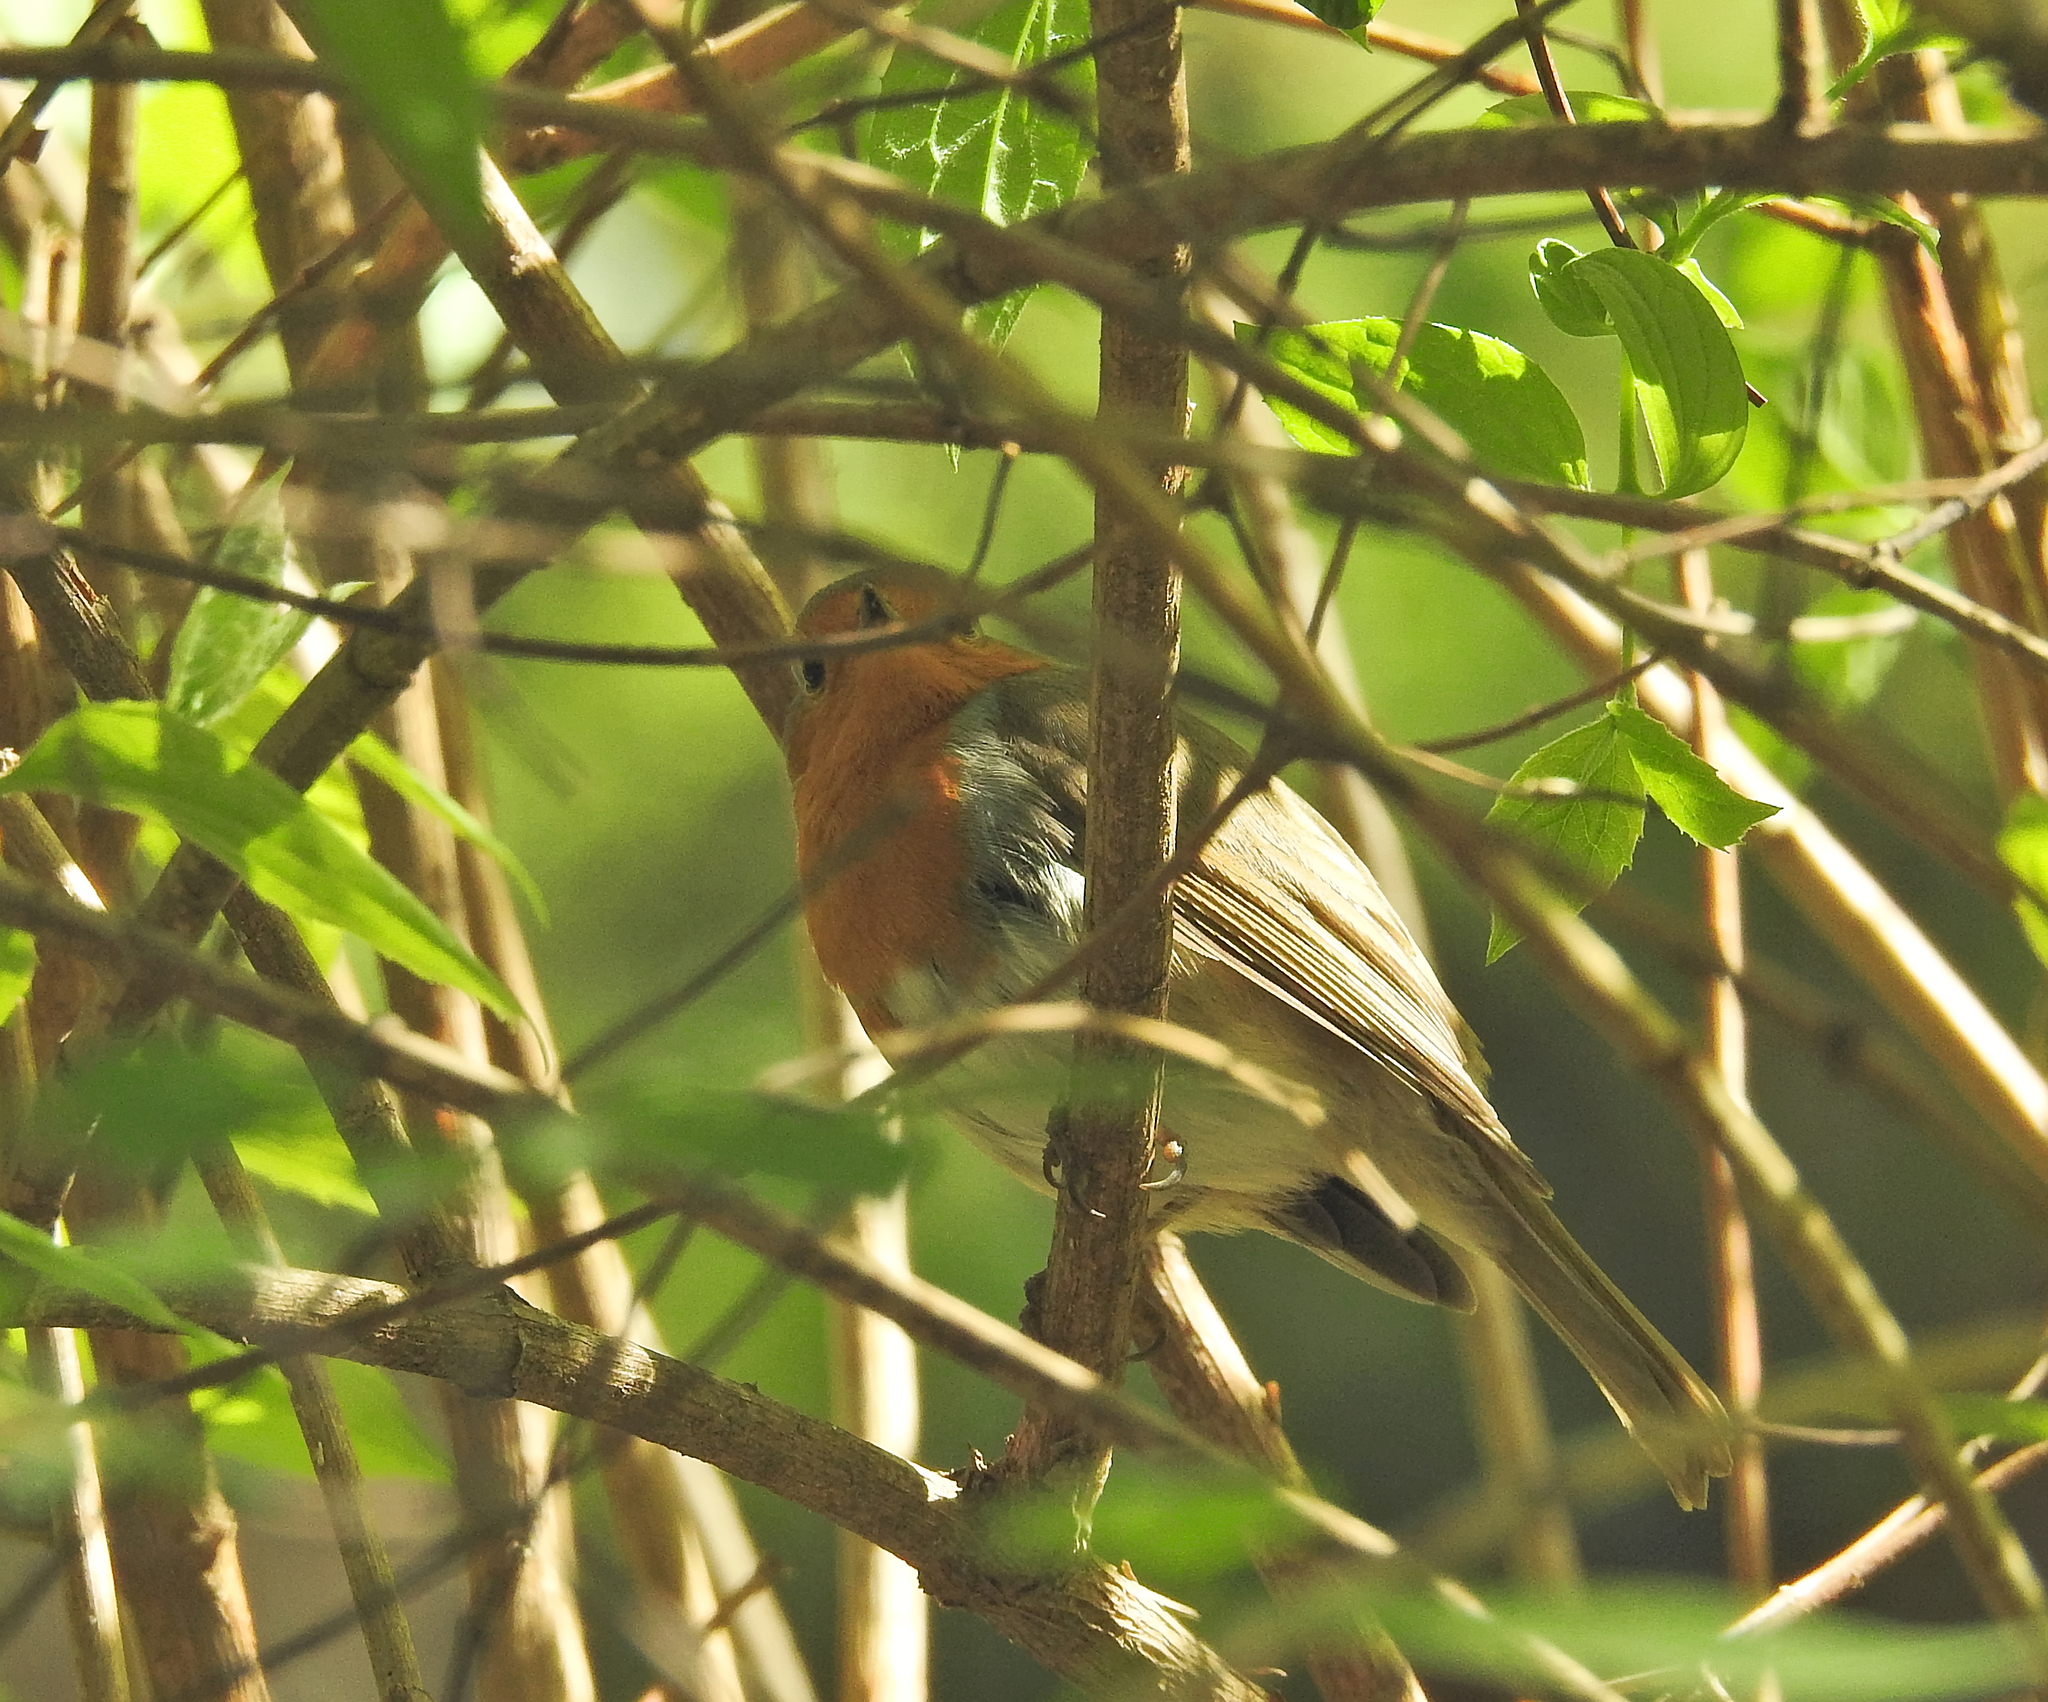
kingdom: Animalia
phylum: Chordata
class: Aves
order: Passeriformes
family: Muscicapidae
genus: Erithacus
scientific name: Erithacus rubecula
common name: European robin
